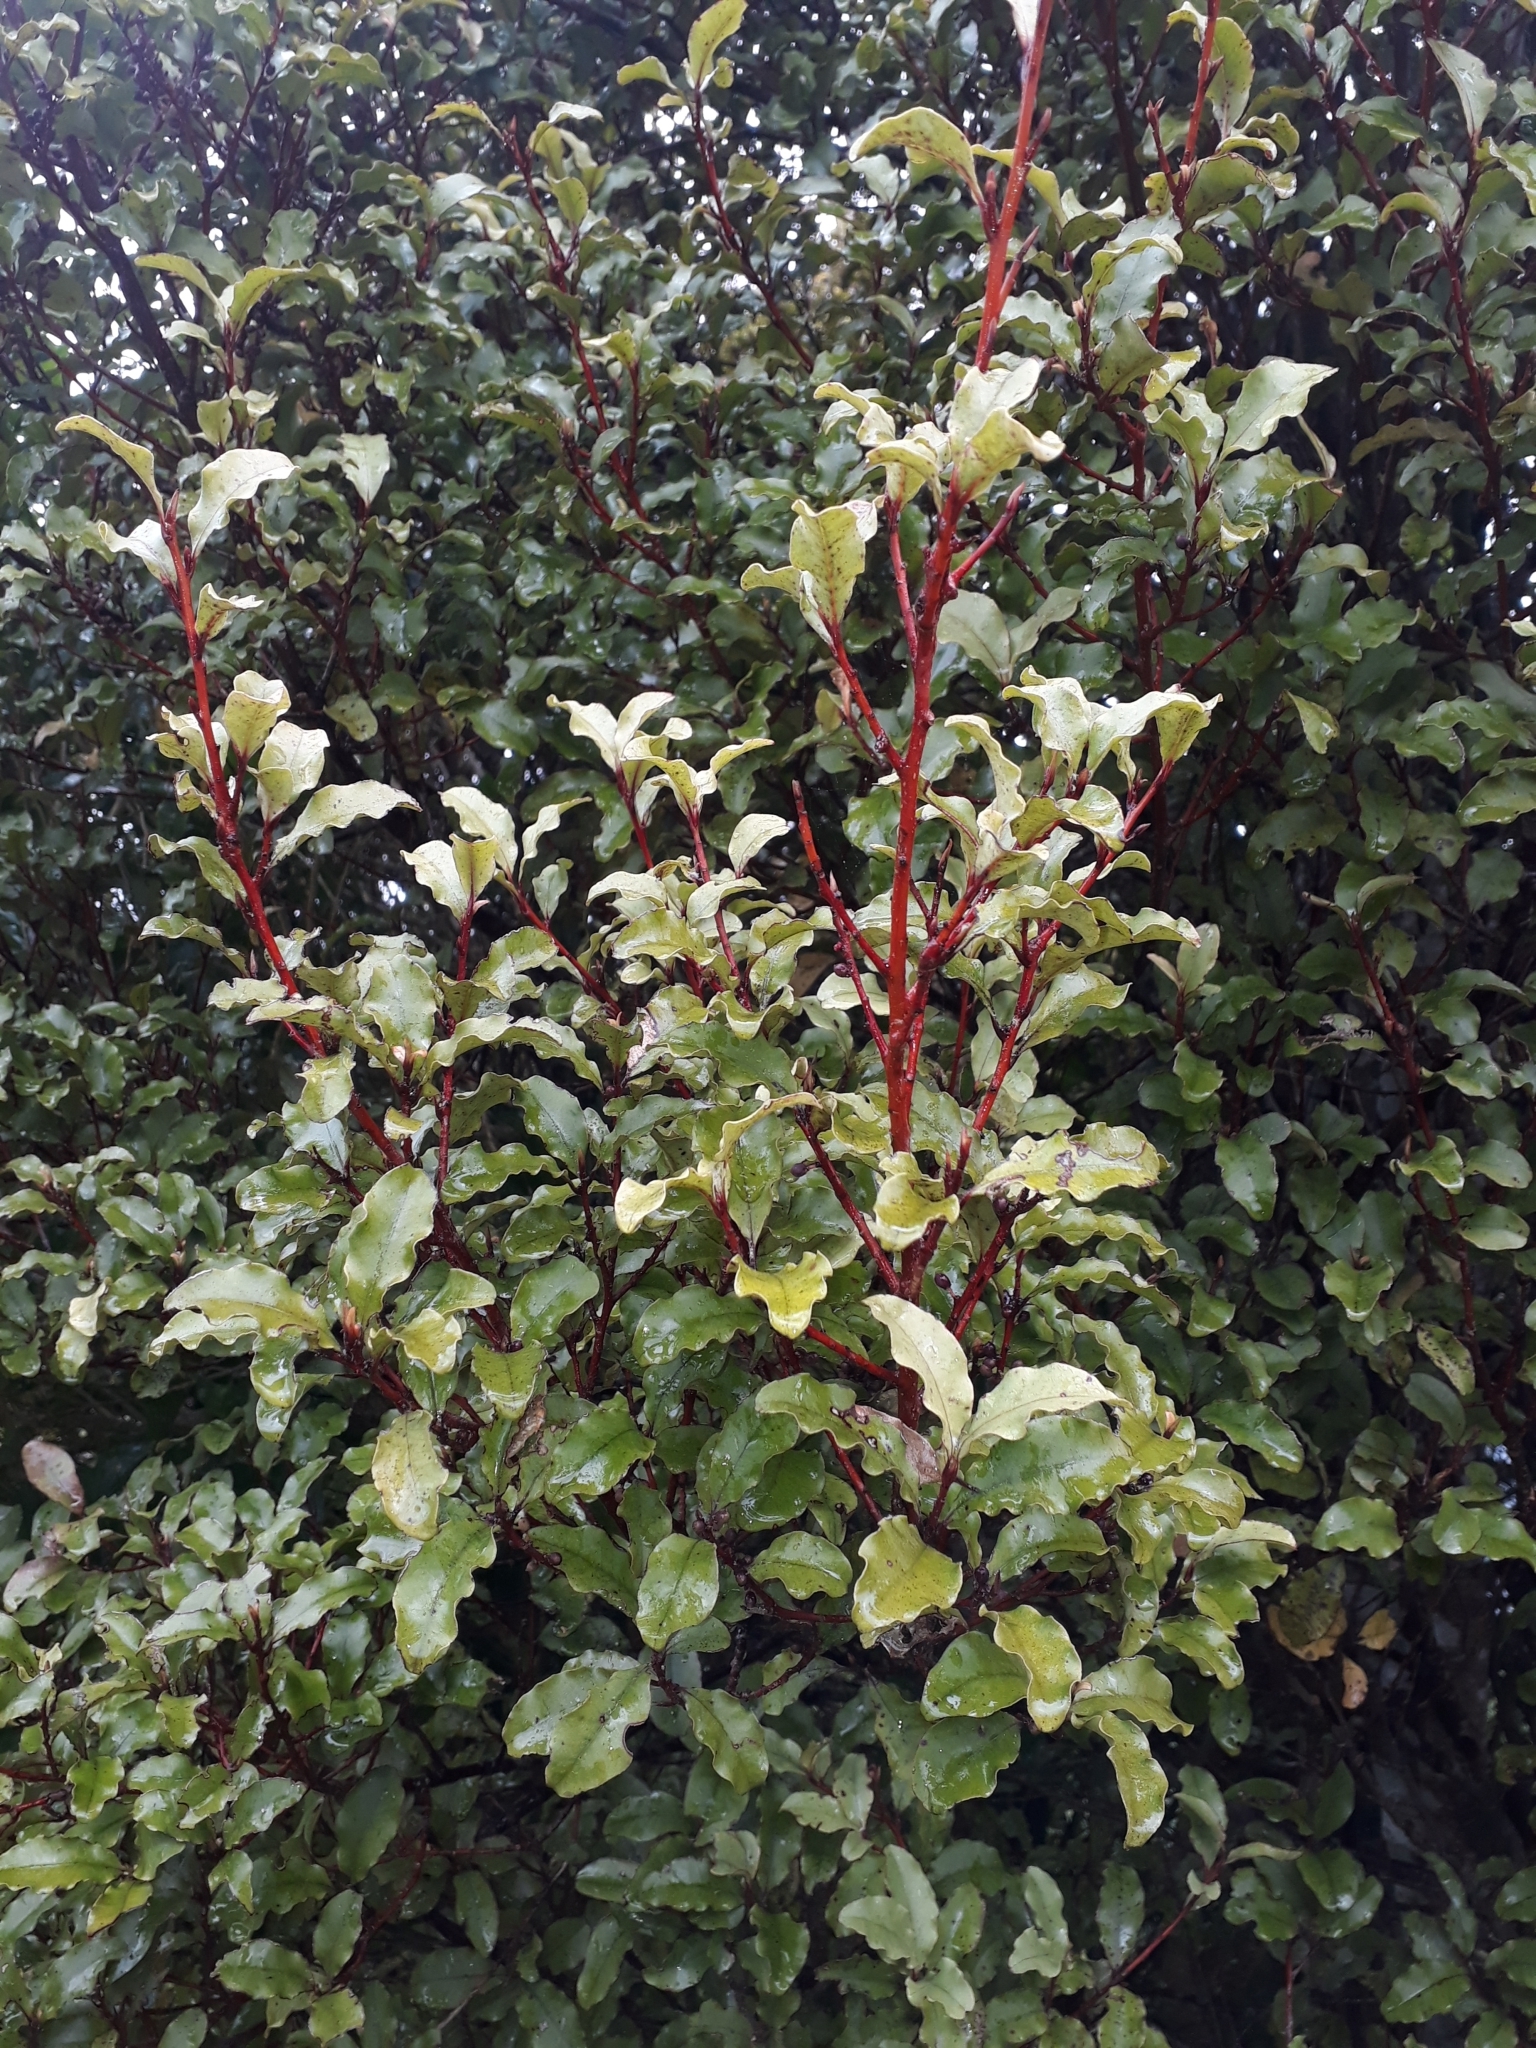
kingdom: Plantae
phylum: Tracheophyta
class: Magnoliopsida
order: Ericales
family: Primulaceae
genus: Myrsine
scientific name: Myrsine australis
